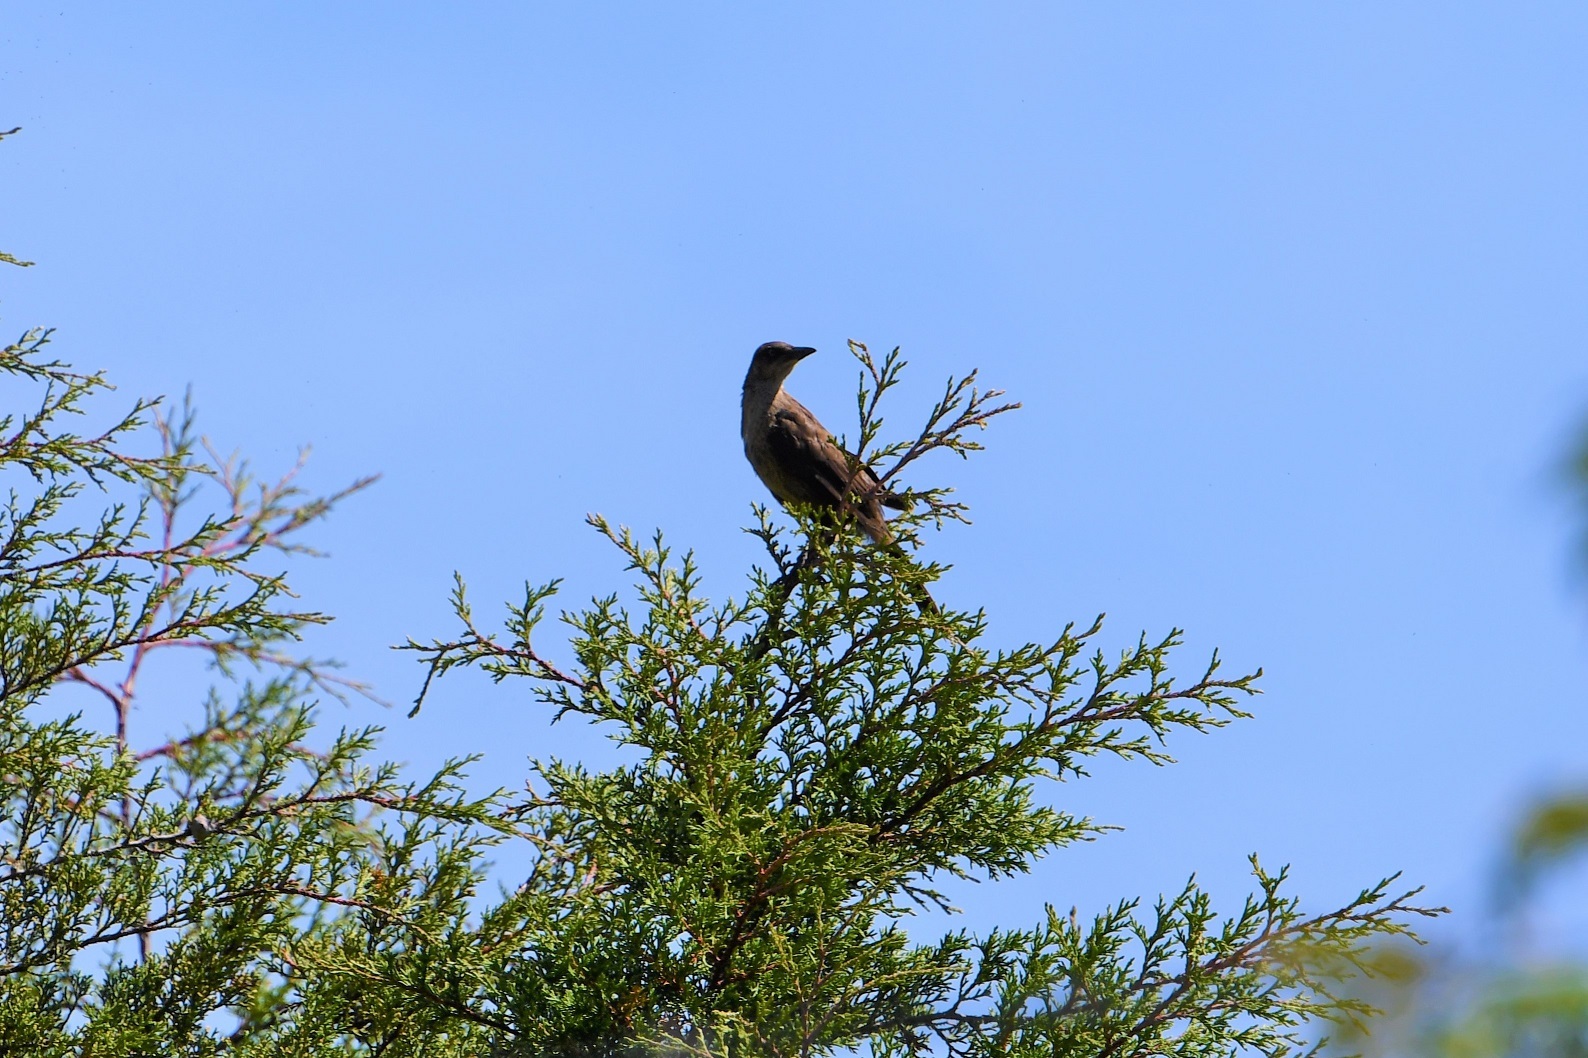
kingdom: Animalia
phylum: Chordata
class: Aves
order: Passeriformes
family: Icteridae
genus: Quiscalus
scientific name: Quiscalus mexicanus
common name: Great-tailed grackle
